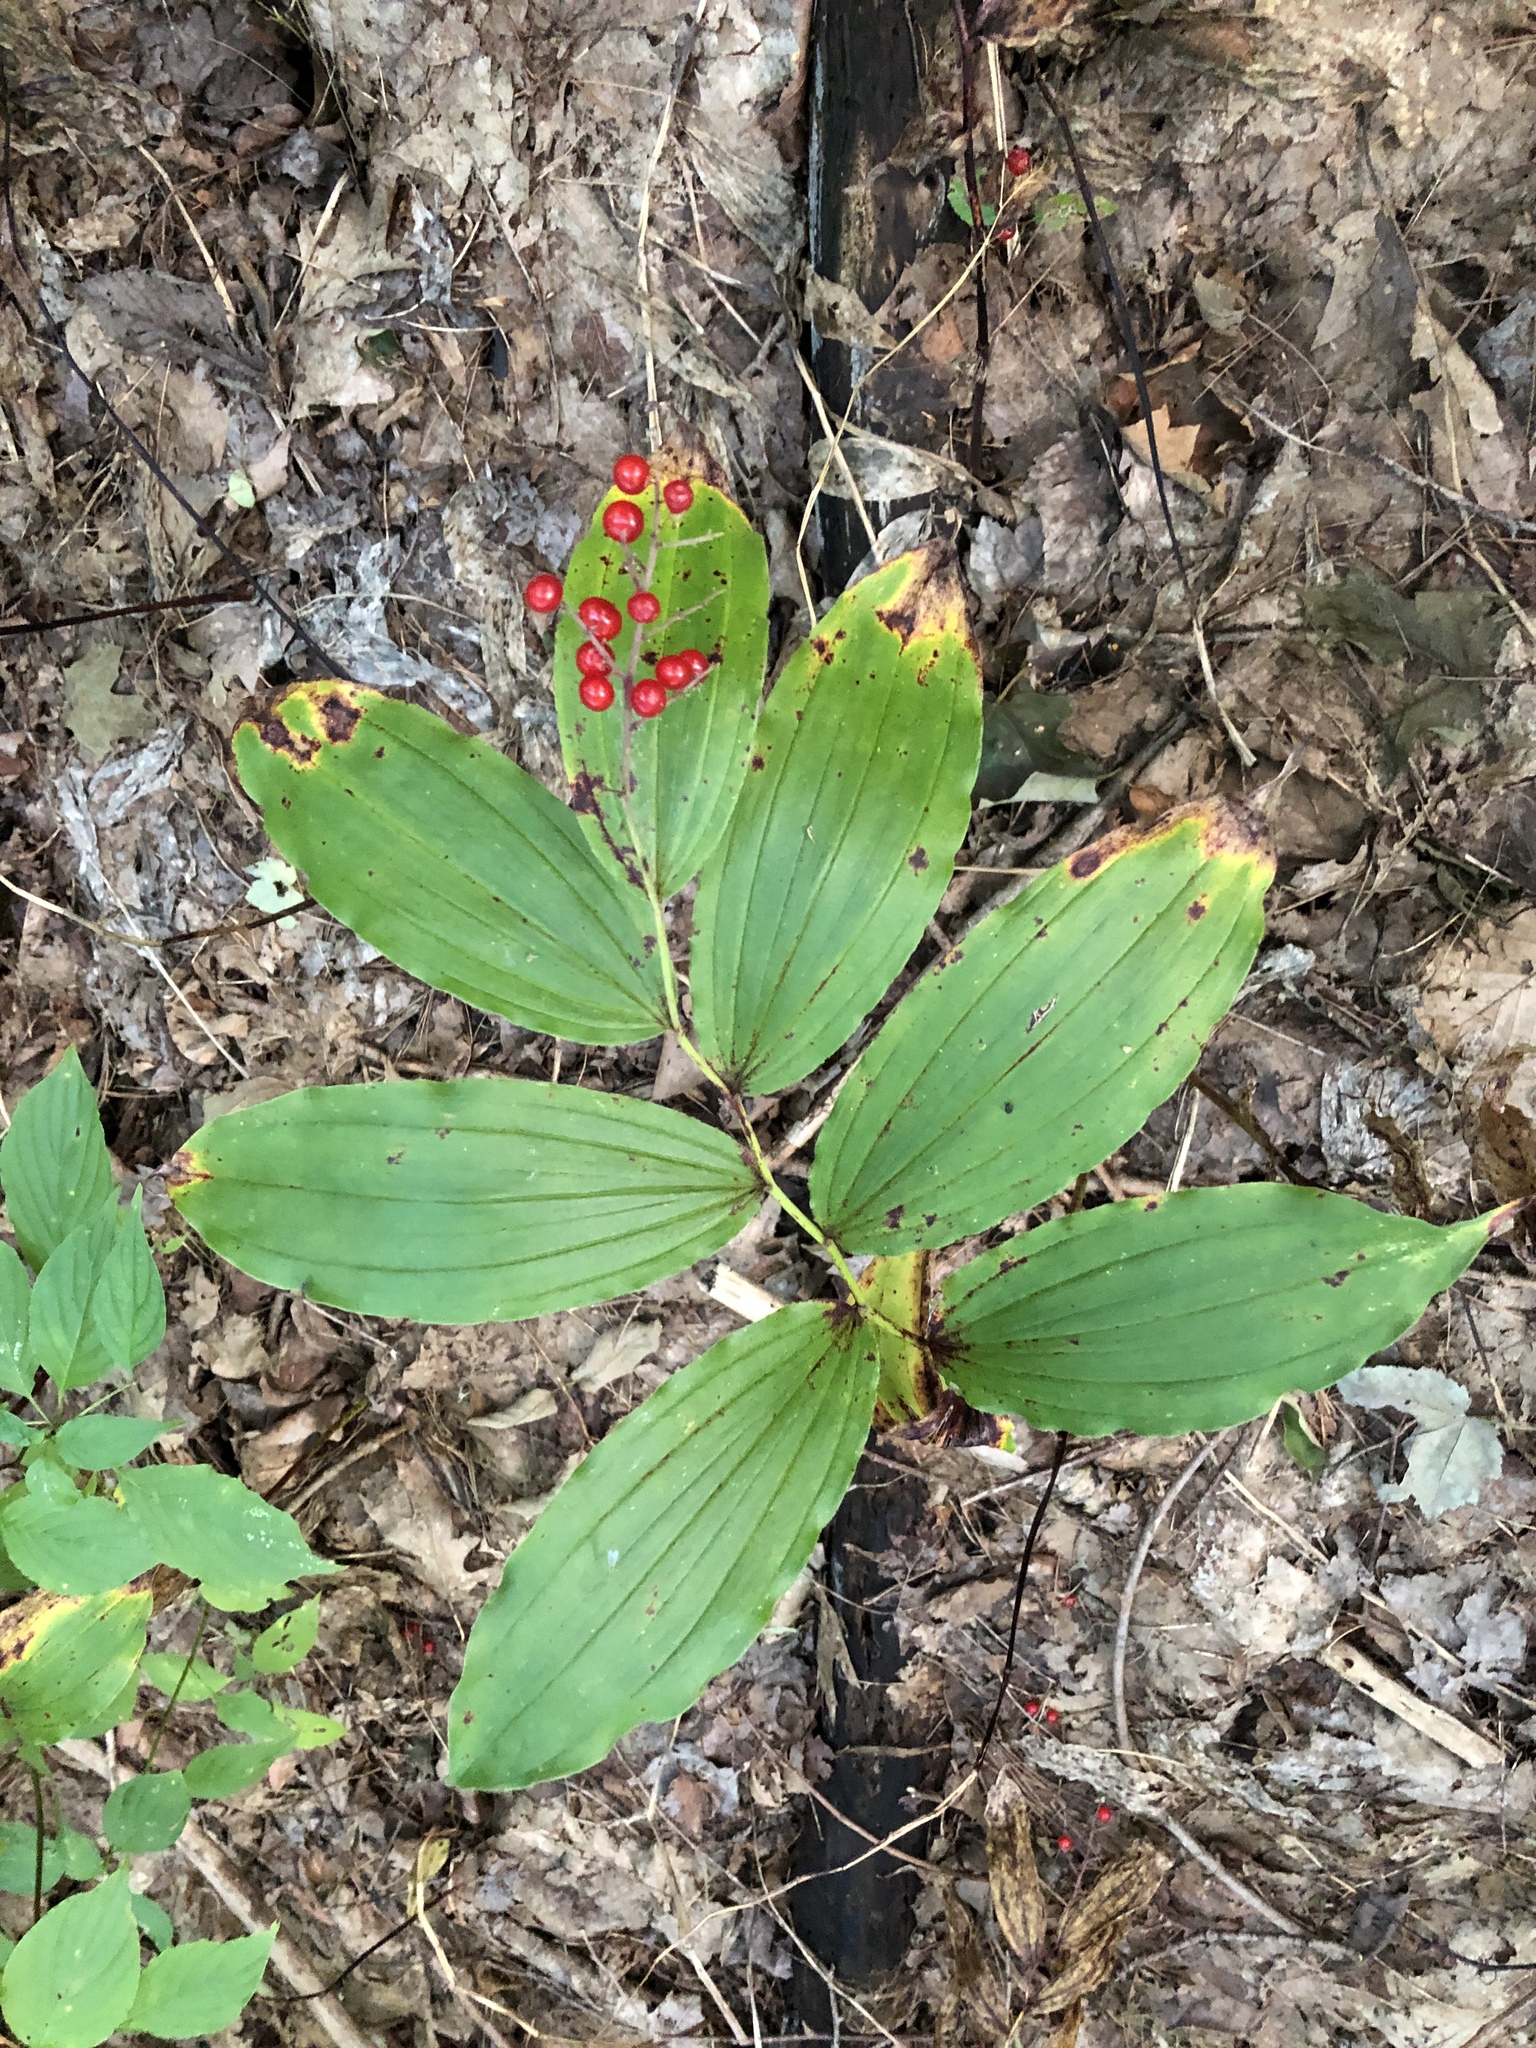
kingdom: Plantae
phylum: Tracheophyta
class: Liliopsida
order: Asparagales
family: Asparagaceae
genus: Maianthemum
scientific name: Maianthemum racemosum
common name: False spikenard
